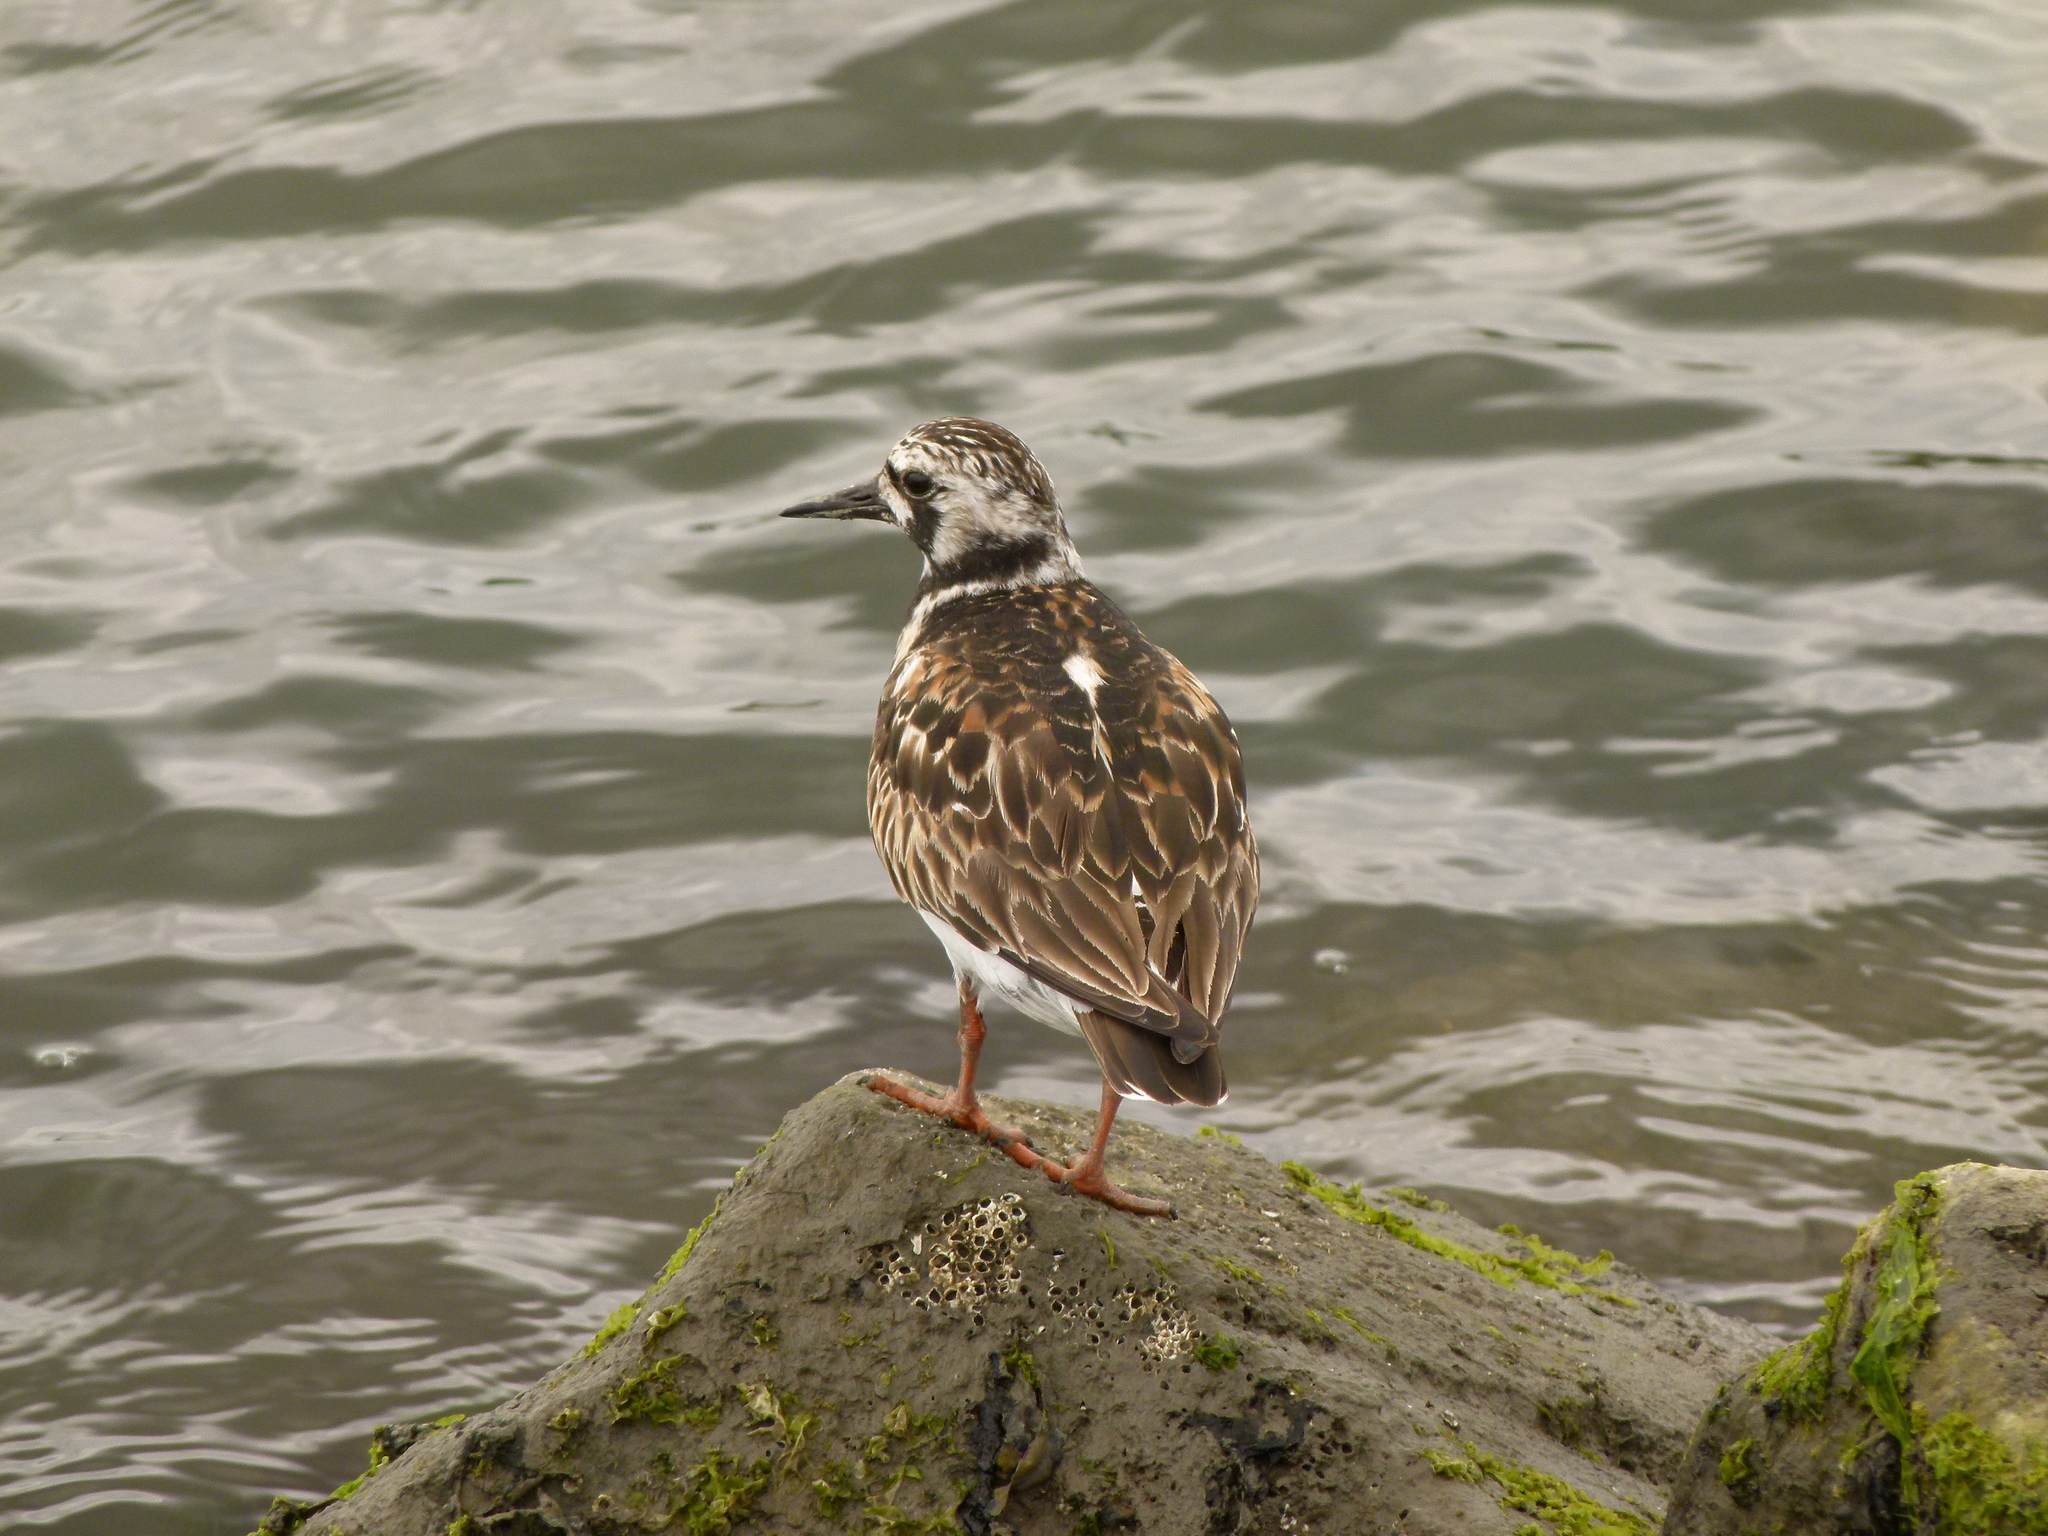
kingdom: Animalia
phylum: Chordata
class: Aves
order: Charadriiformes
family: Scolopacidae
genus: Arenaria
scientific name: Arenaria interpres
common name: Ruddy turnstone
